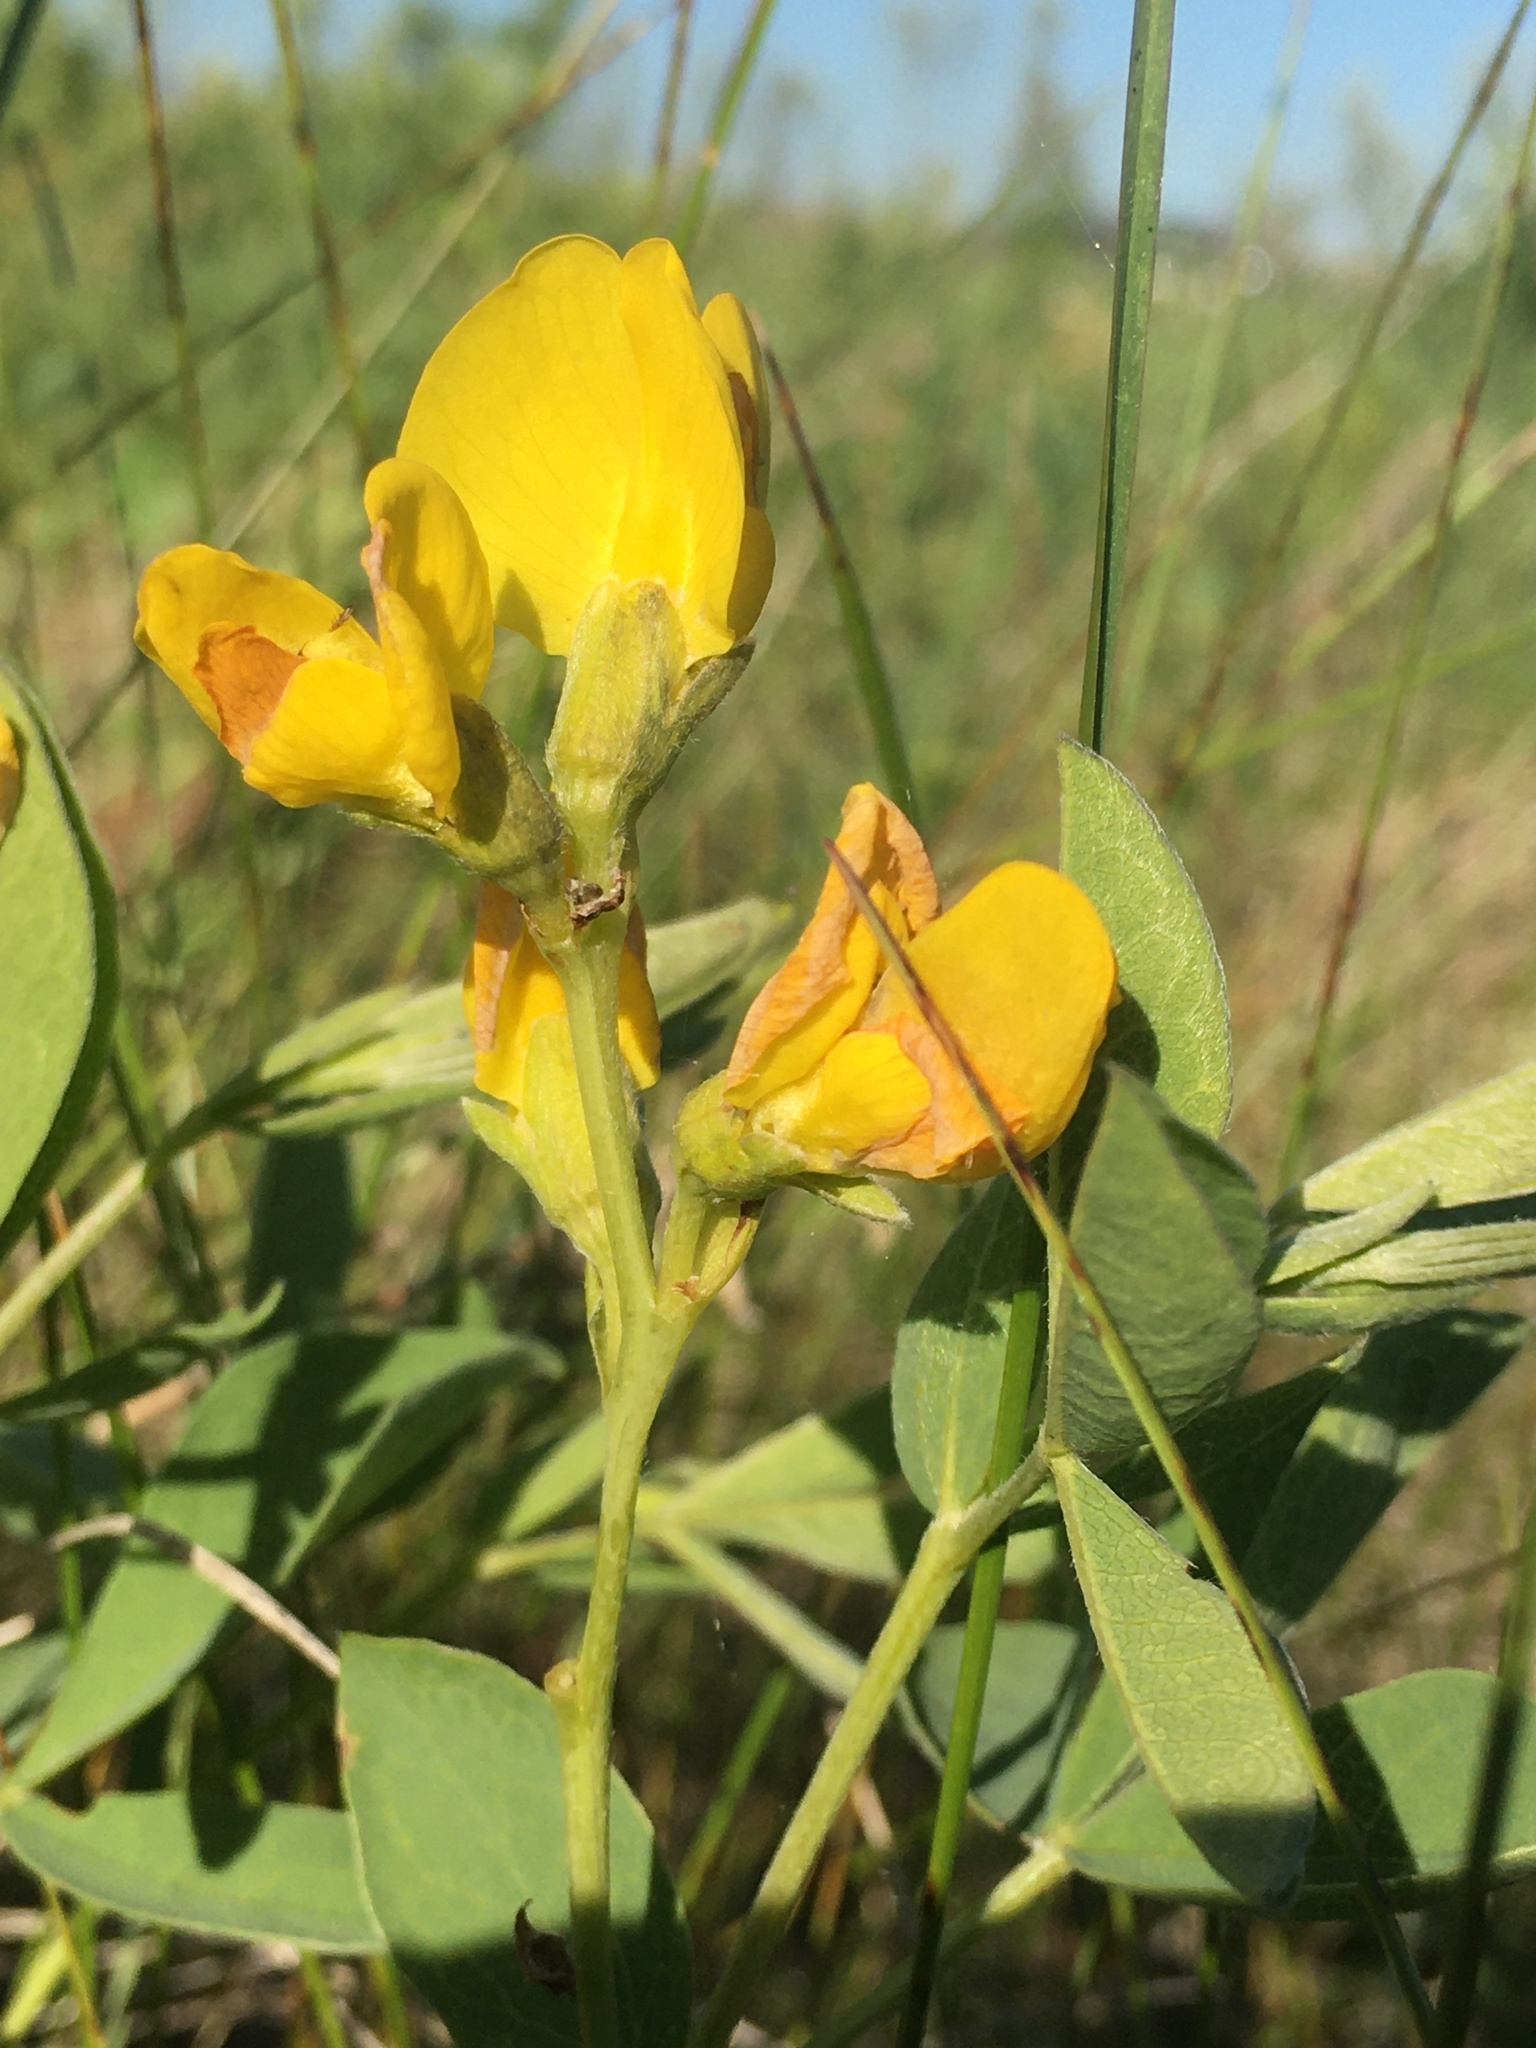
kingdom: Plantae
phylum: Tracheophyta
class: Magnoliopsida
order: Fabales
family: Fabaceae
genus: Thermopsis
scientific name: Thermopsis rhombifolia
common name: Circle-pod-pea
